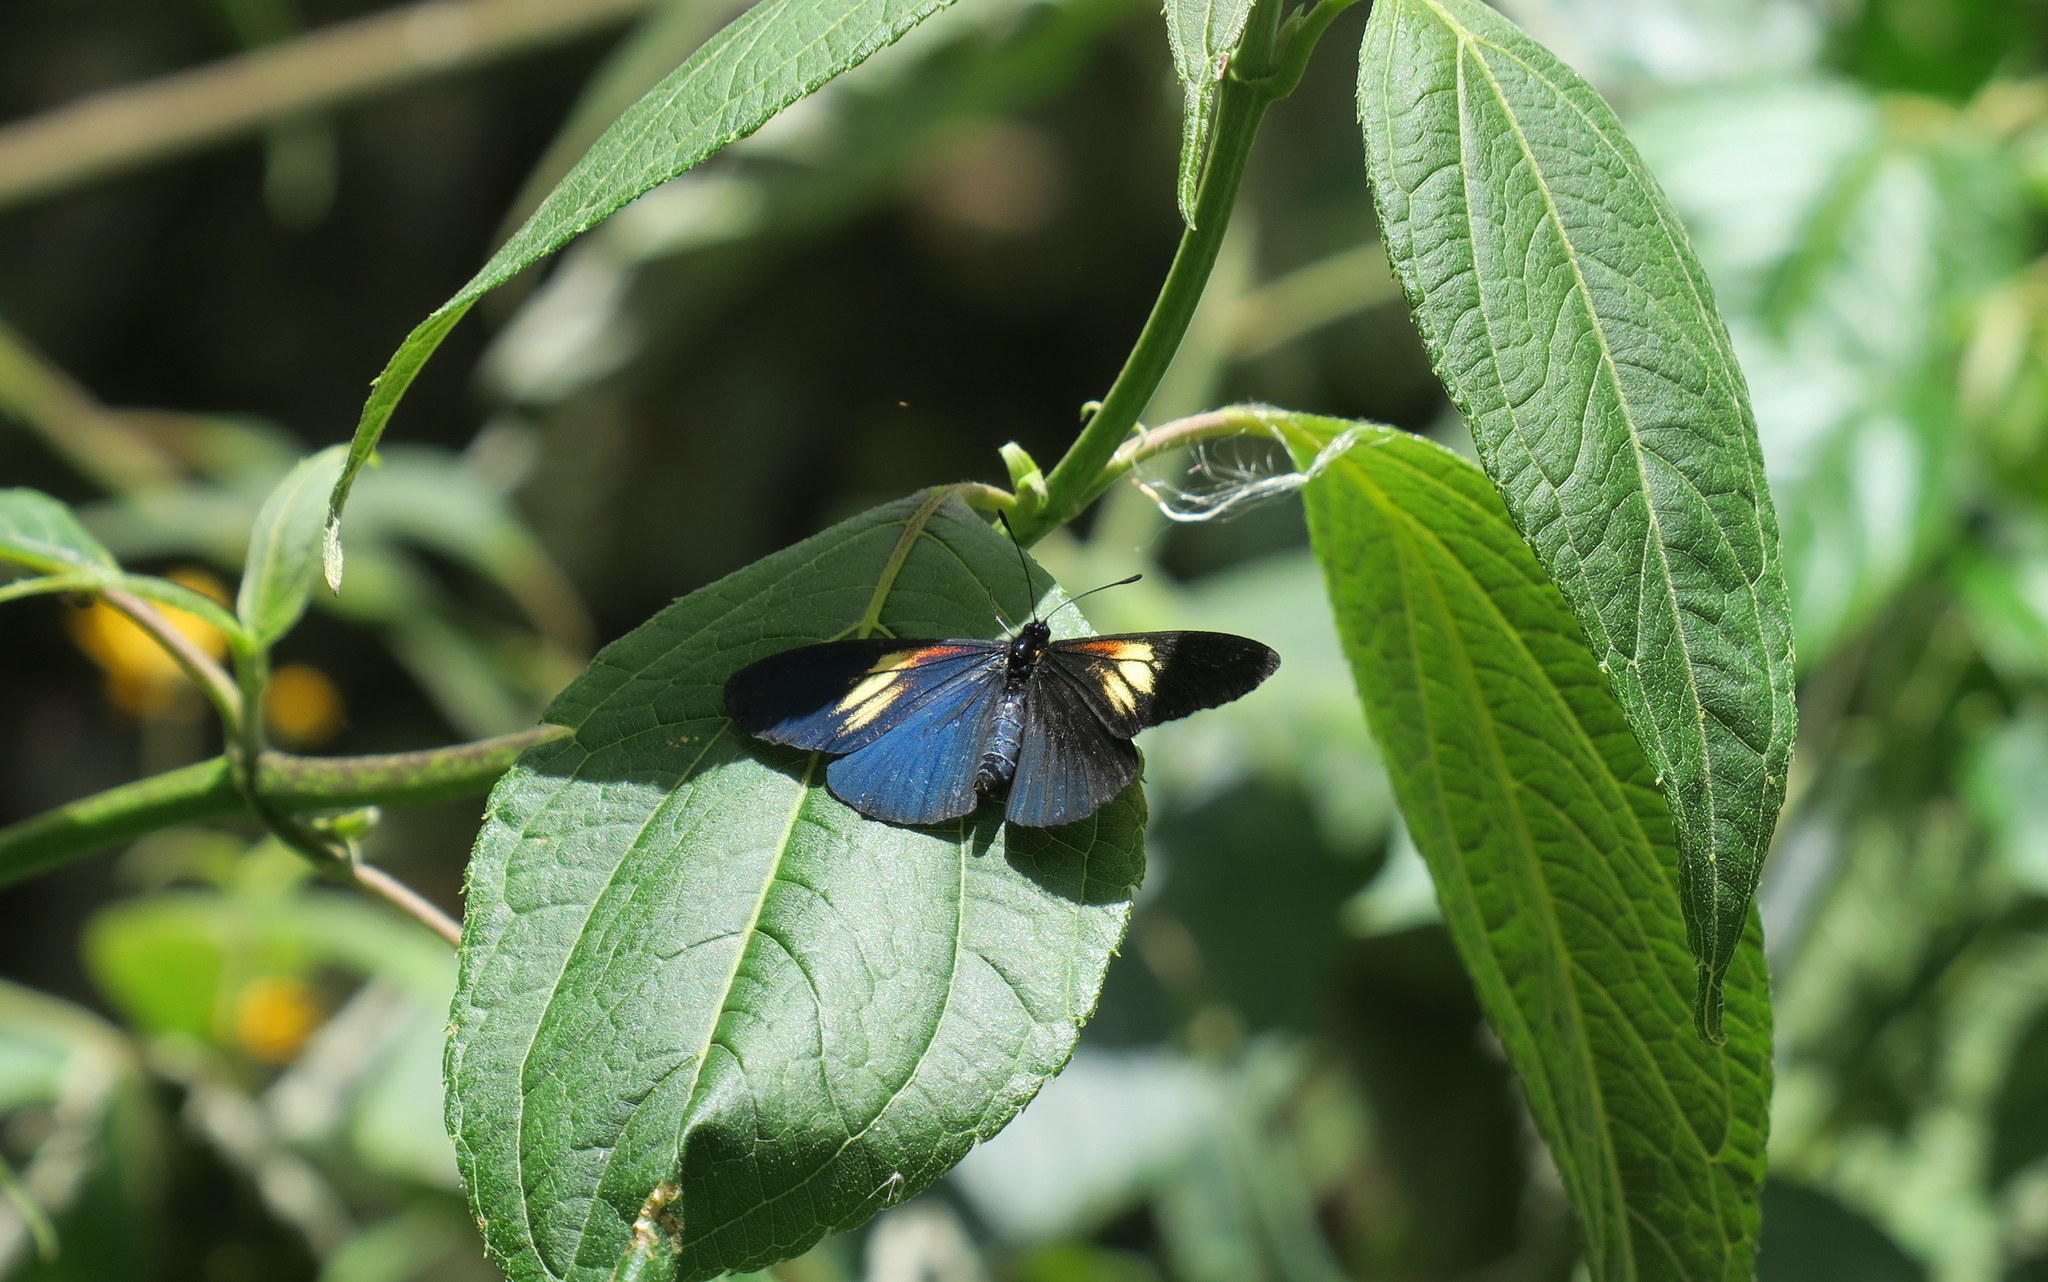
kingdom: Animalia
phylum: Arthropoda
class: Insecta
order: Lepidoptera
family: Nymphalidae
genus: Acraea
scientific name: Acraea Altinote ozomene
